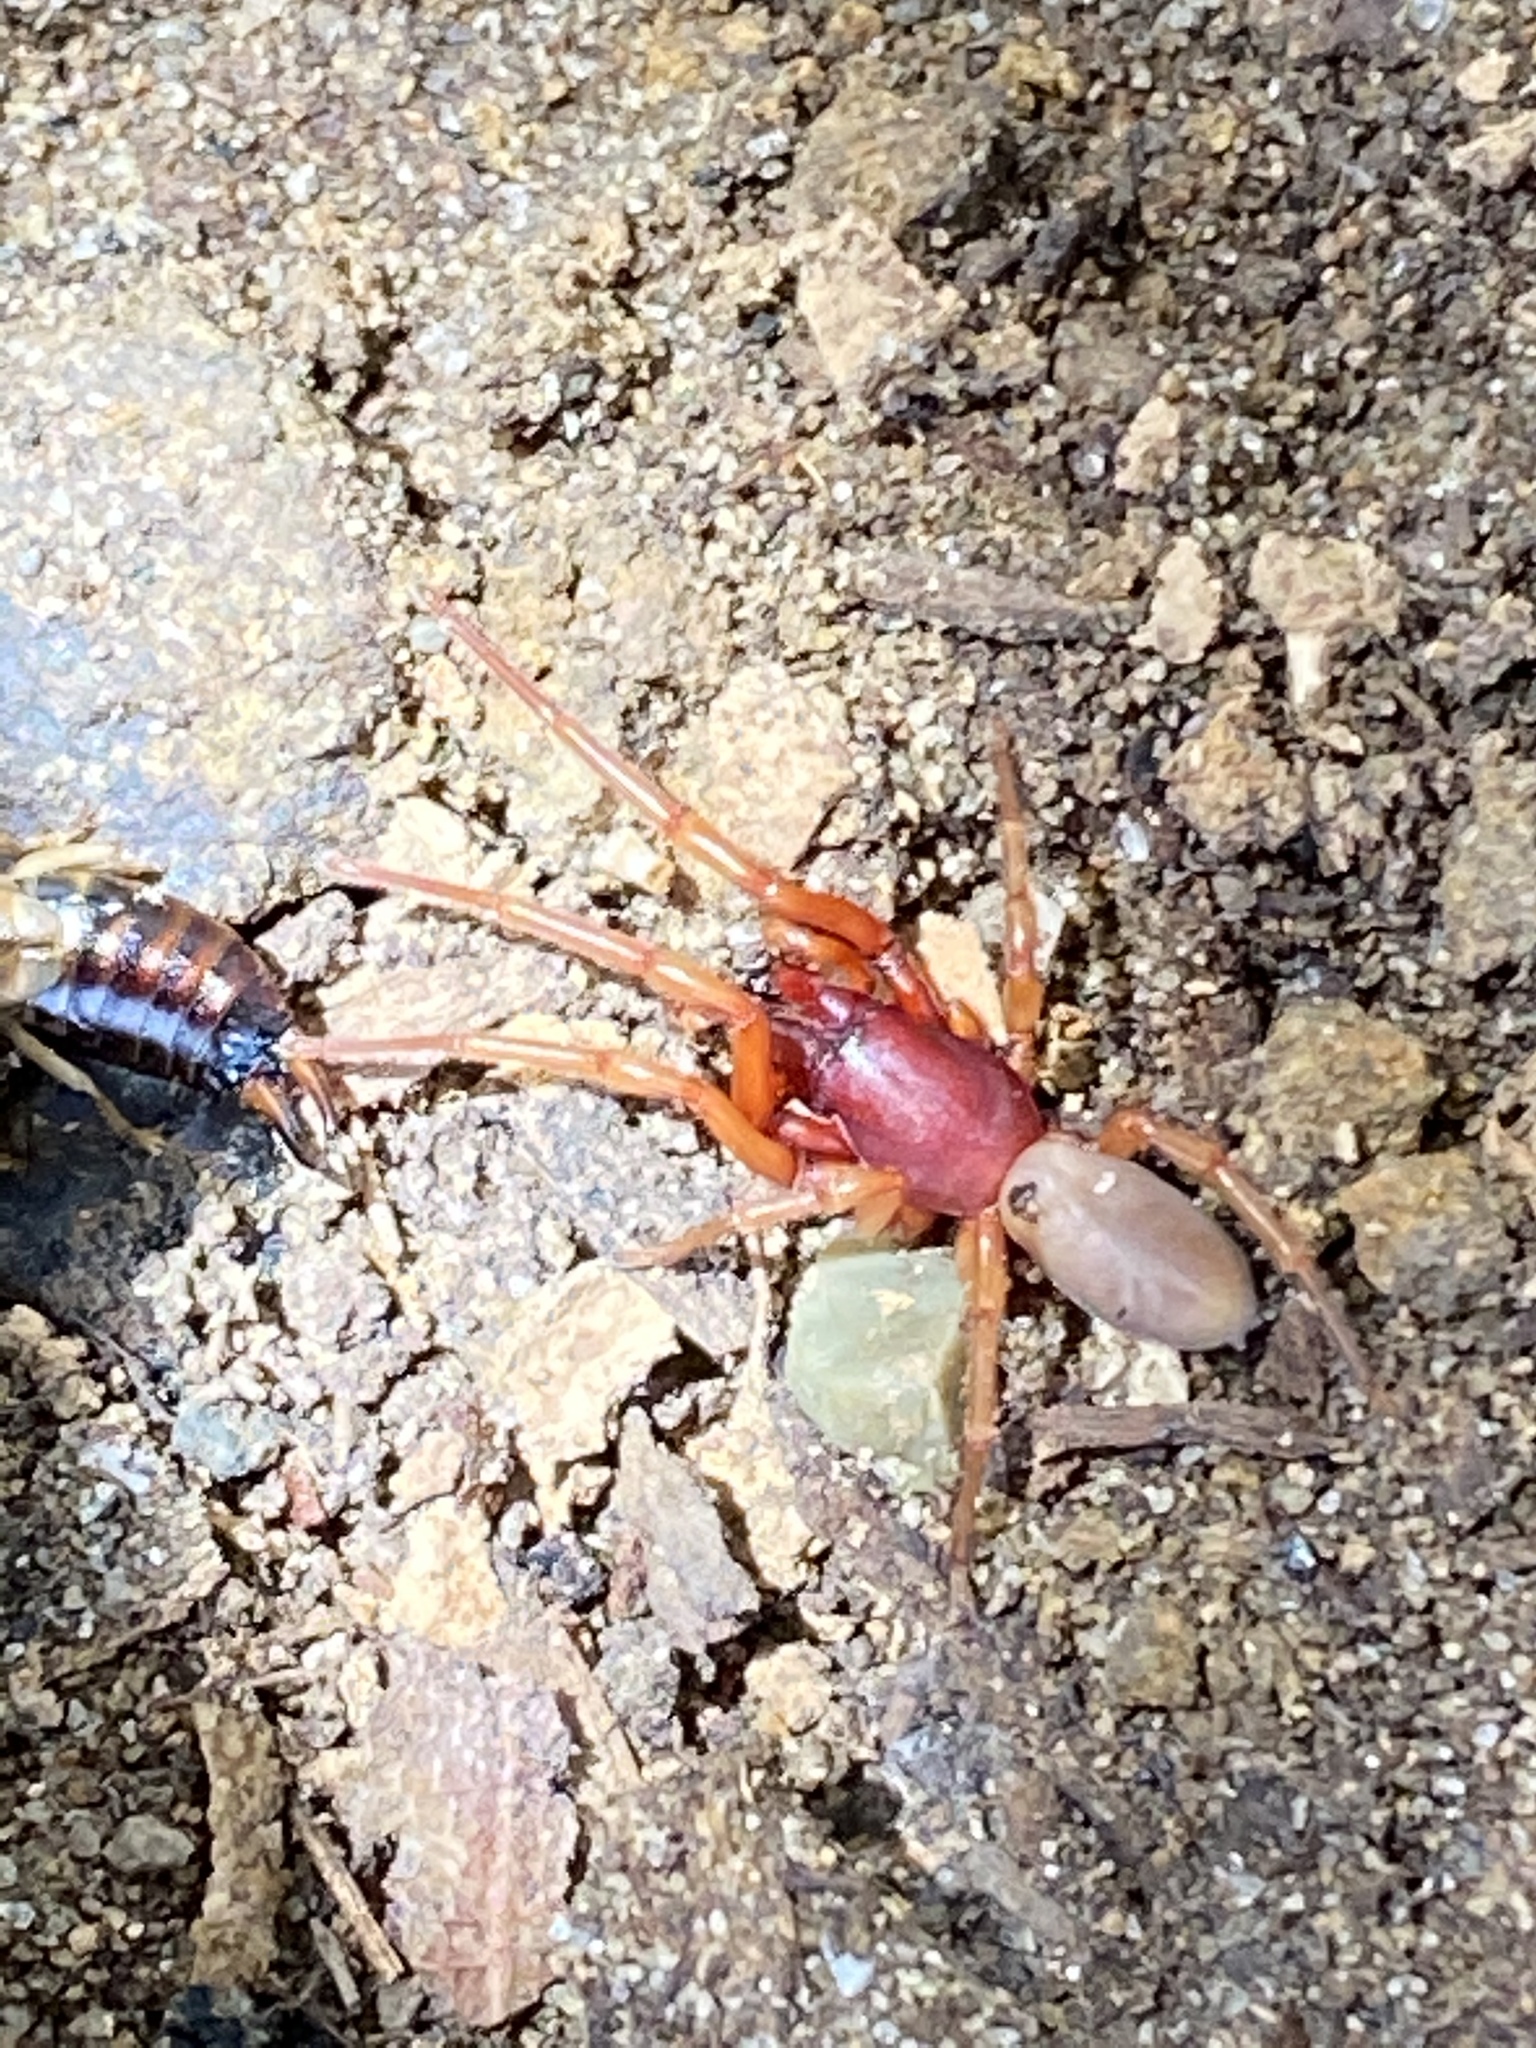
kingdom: Animalia
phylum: Arthropoda
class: Arachnida
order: Araneae
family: Dysderidae
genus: Dysdera
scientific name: Dysdera crocata
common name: Woodlouse spider
